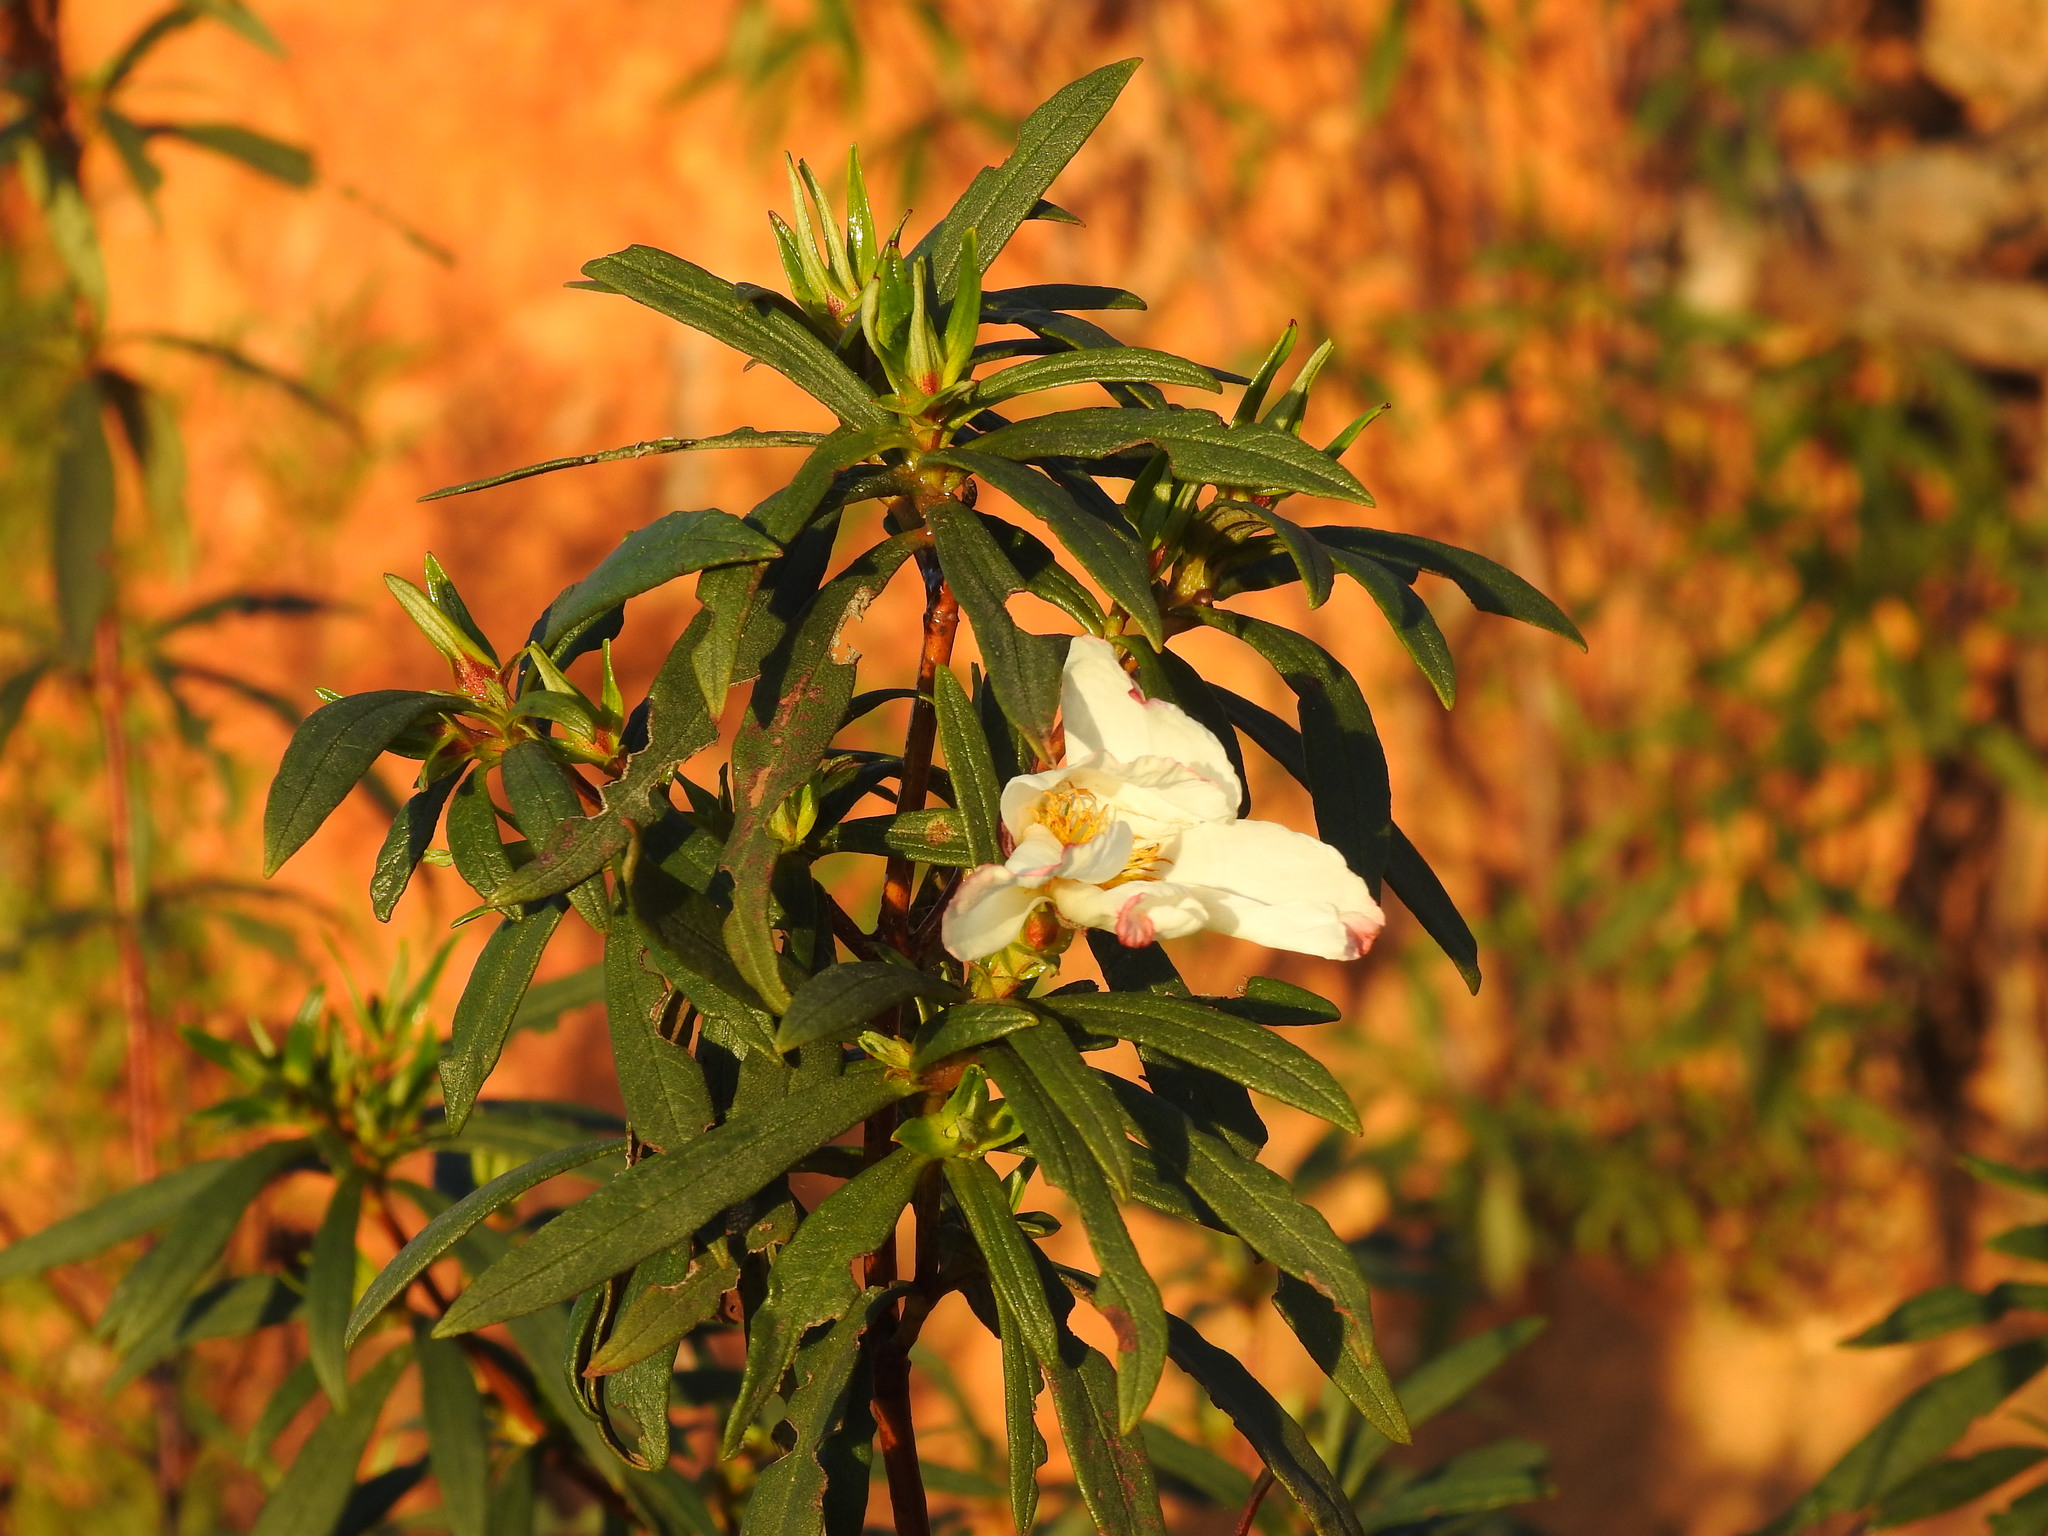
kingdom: Plantae
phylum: Tracheophyta
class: Magnoliopsida
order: Malvales
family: Cistaceae
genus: Cistus
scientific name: Cistus ladanifer
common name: Common gum cistus
